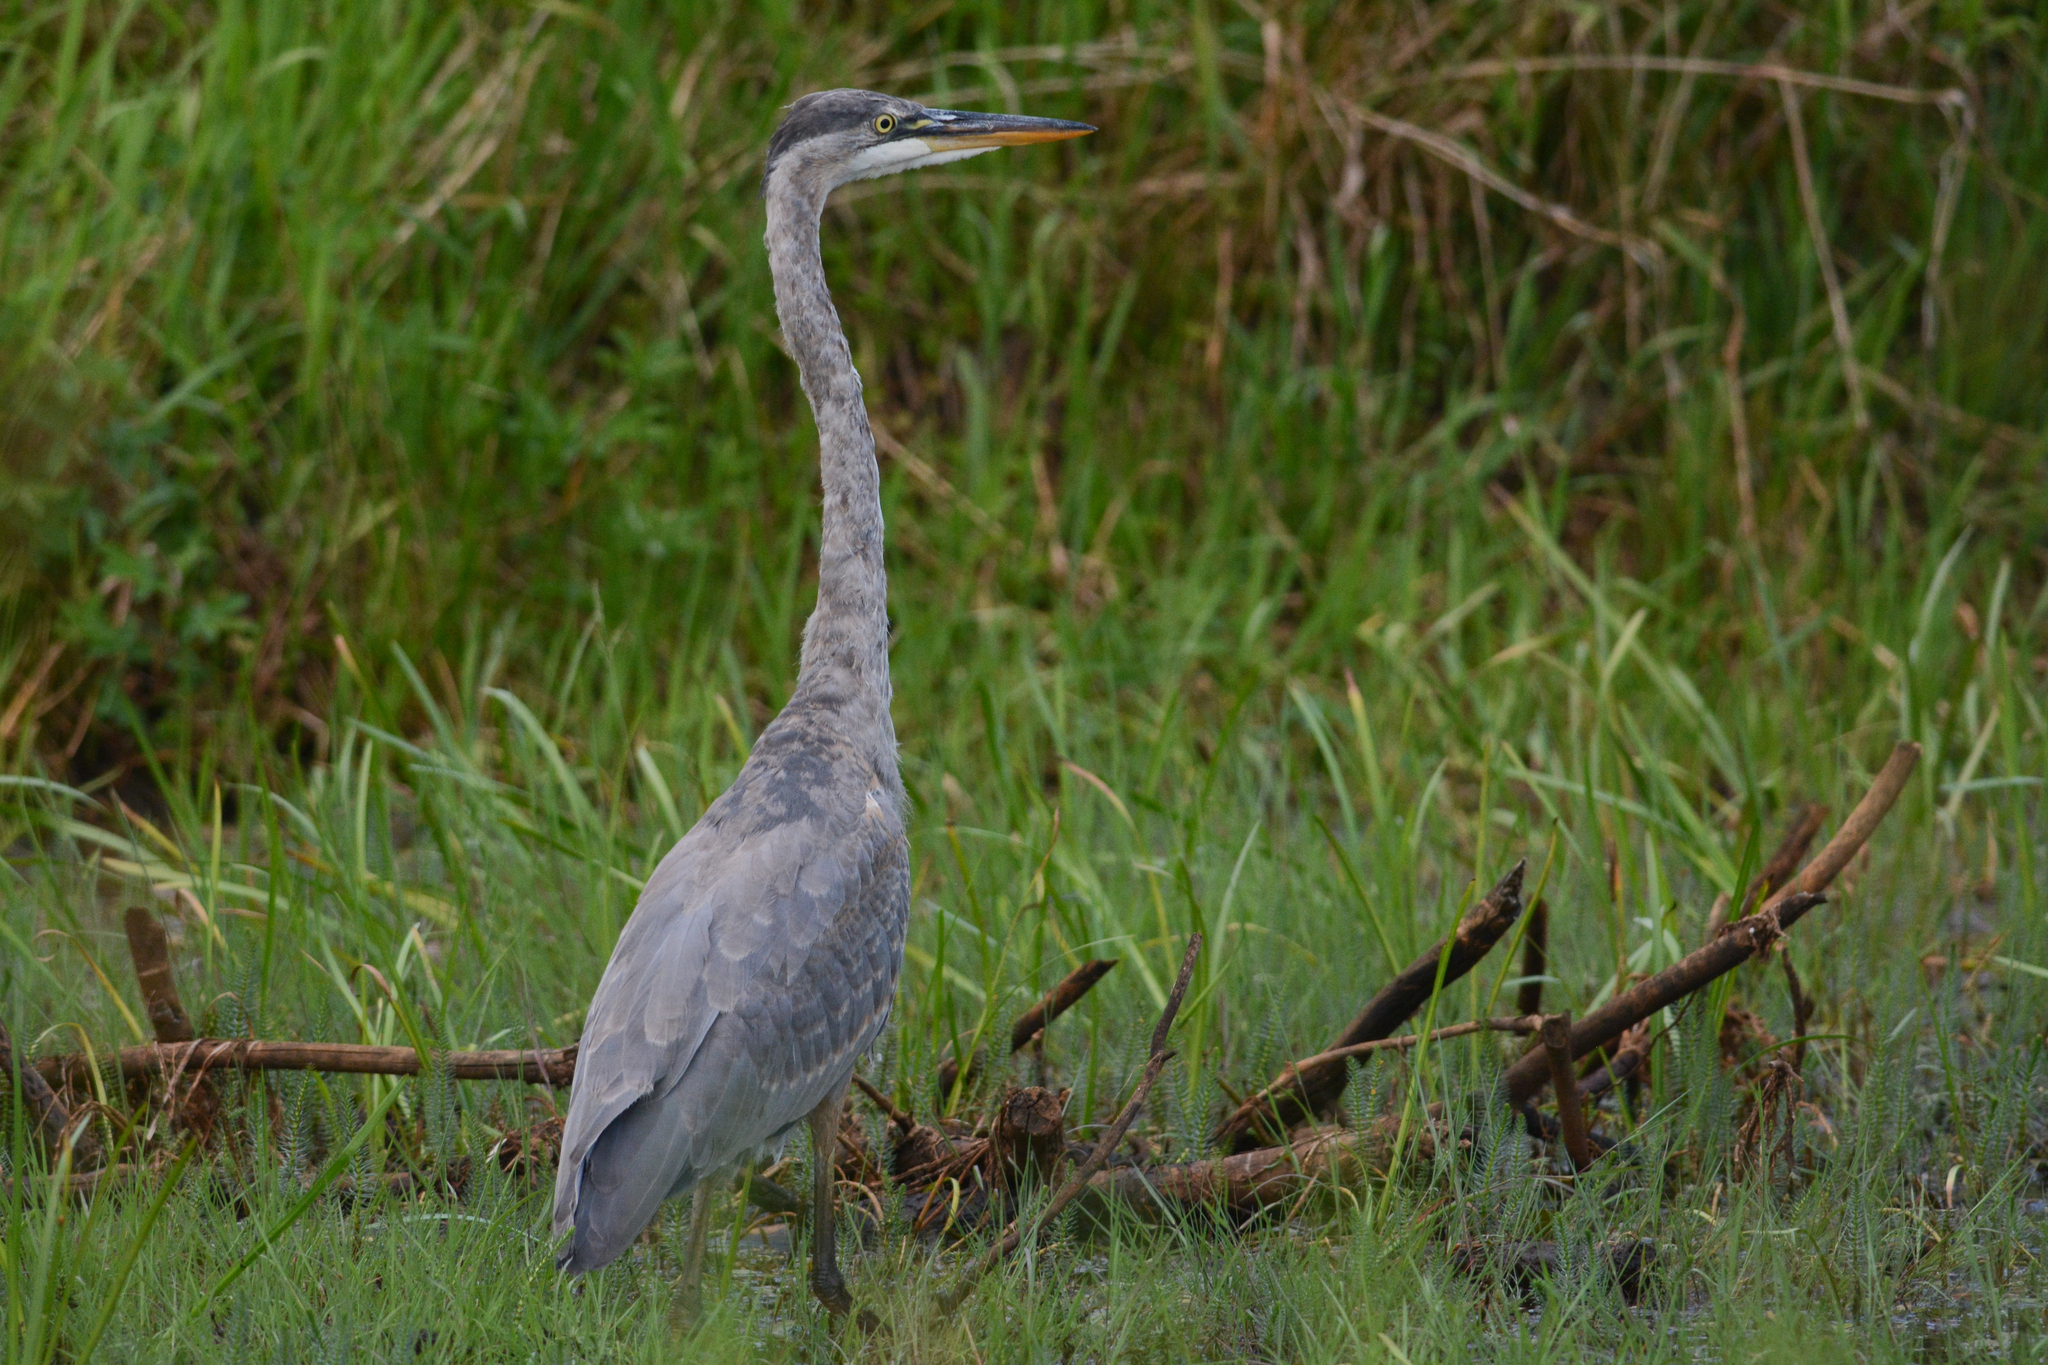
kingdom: Animalia
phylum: Chordata
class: Aves
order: Pelecaniformes
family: Ardeidae
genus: Ardea
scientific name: Ardea herodias
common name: Great blue heron
